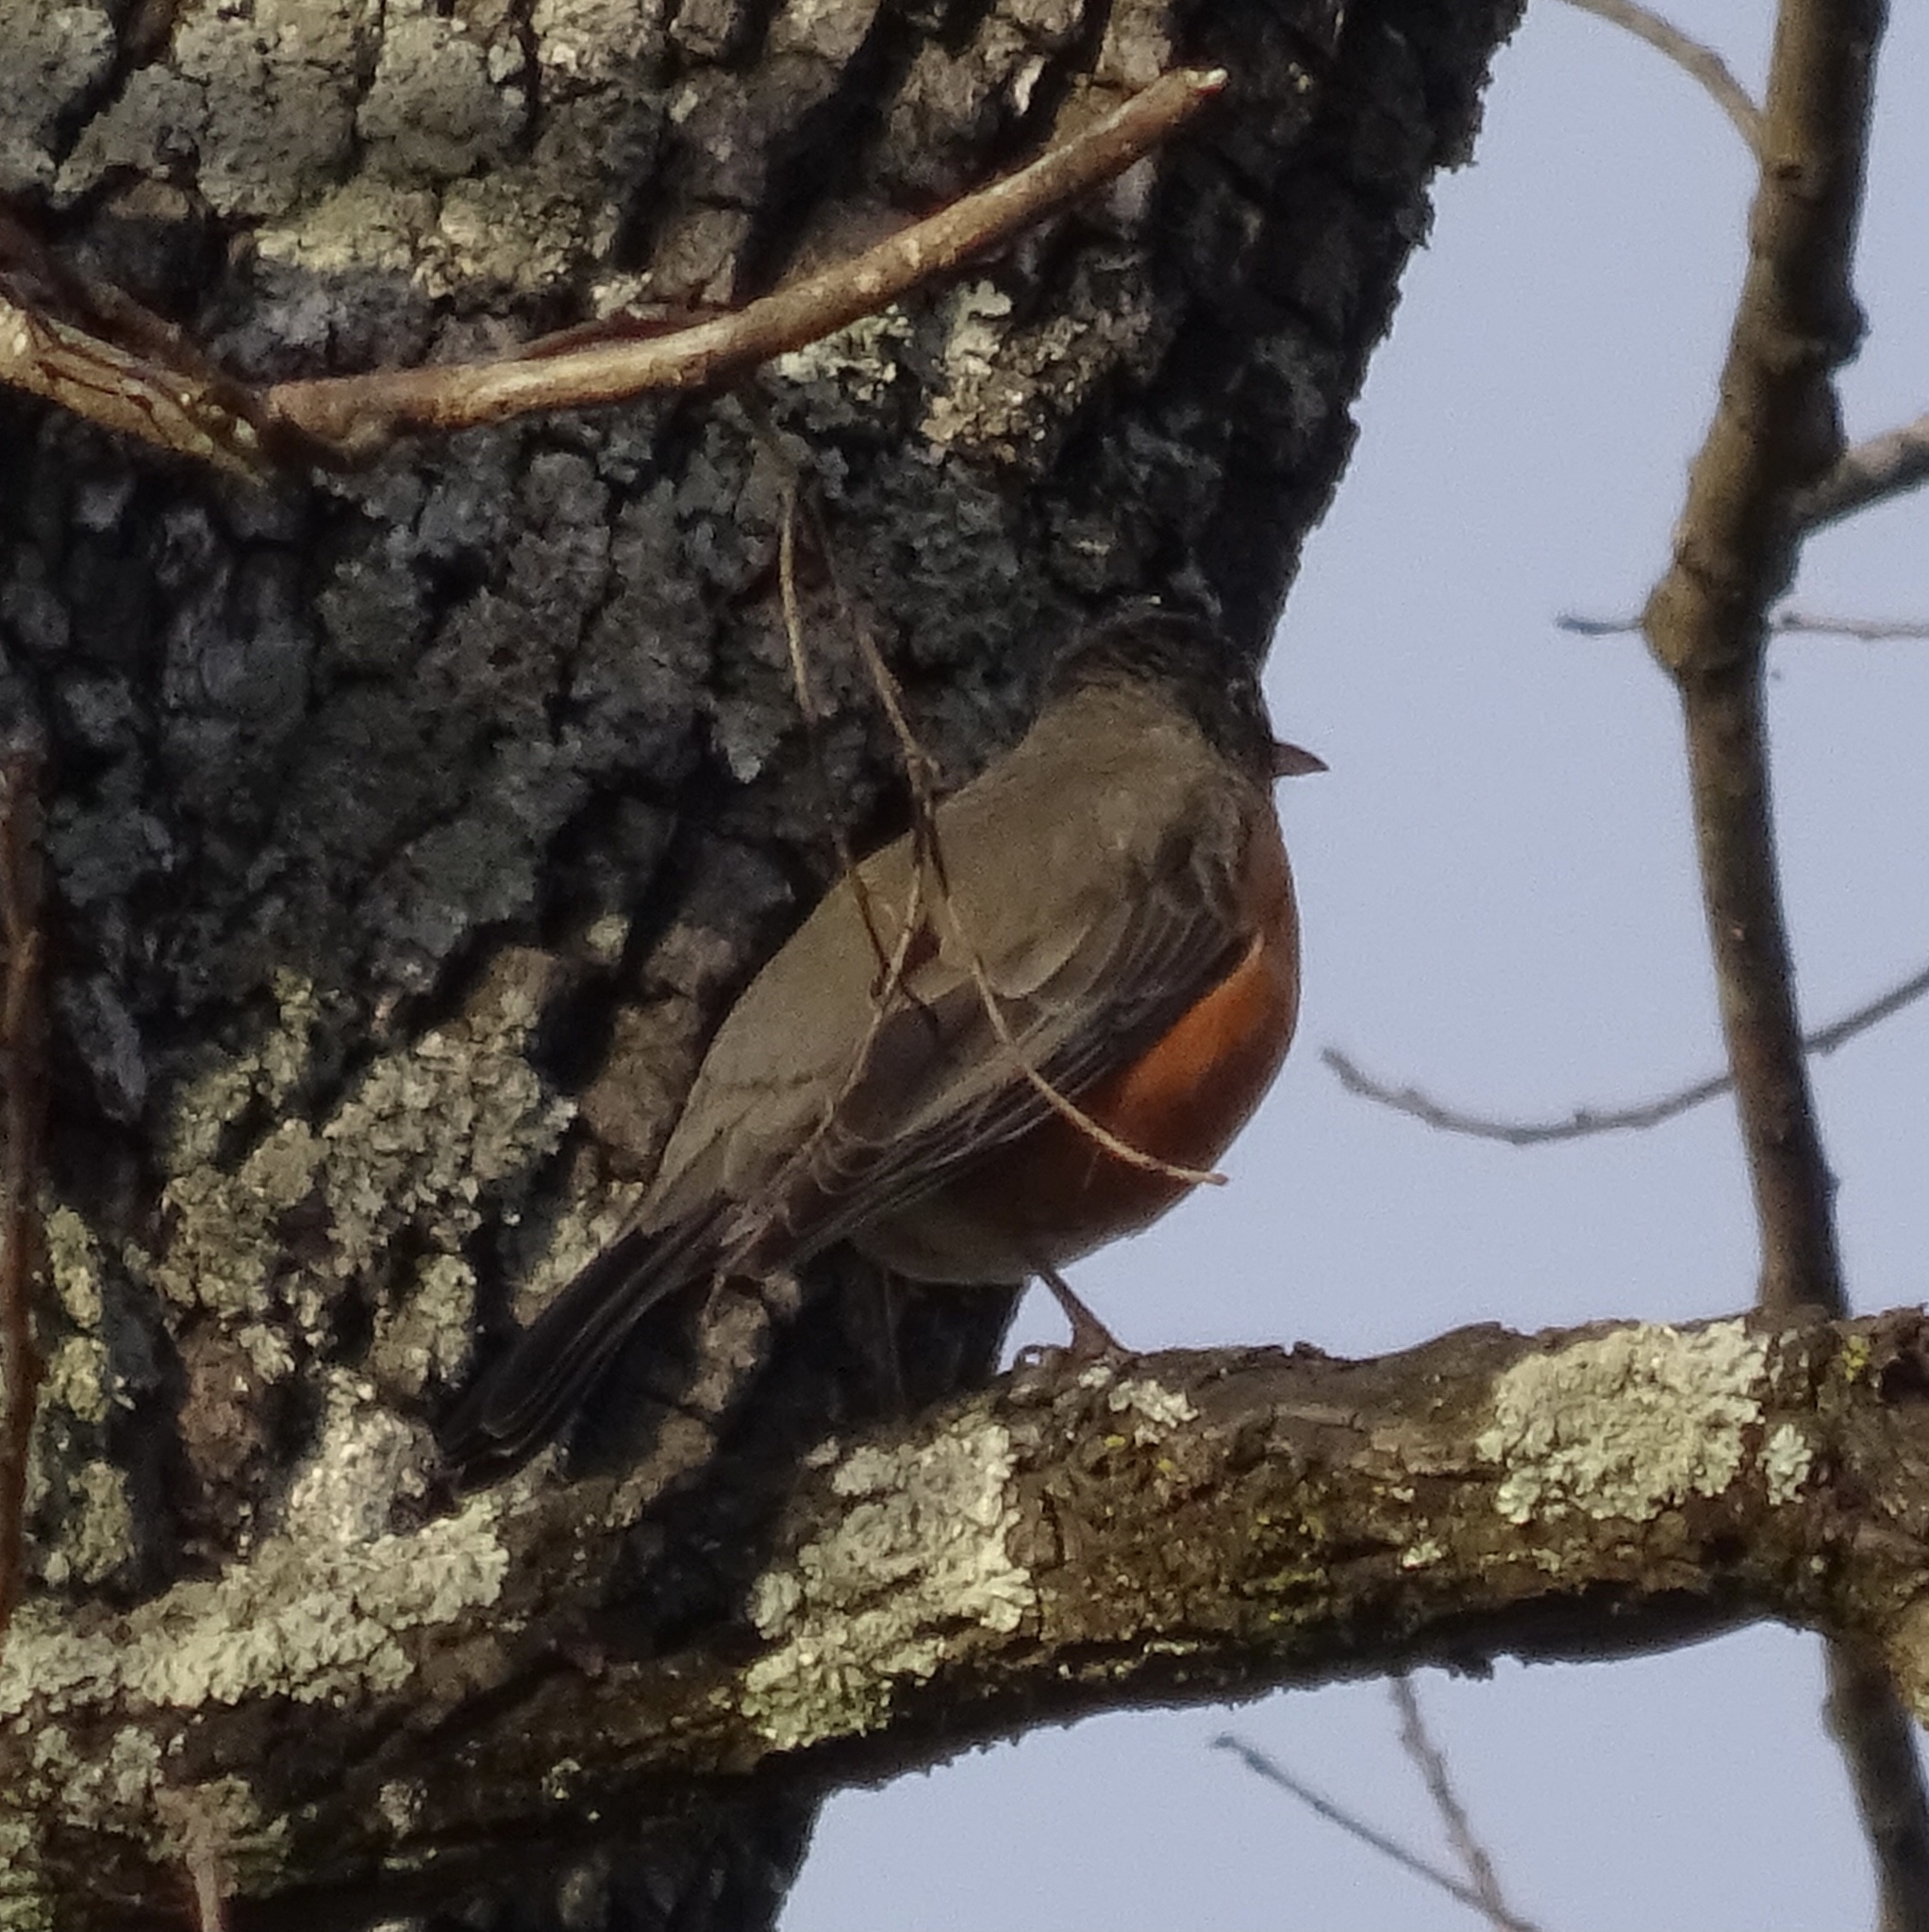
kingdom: Animalia
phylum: Chordata
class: Aves
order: Passeriformes
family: Turdidae
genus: Turdus
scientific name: Turdus migratorius
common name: American robin
